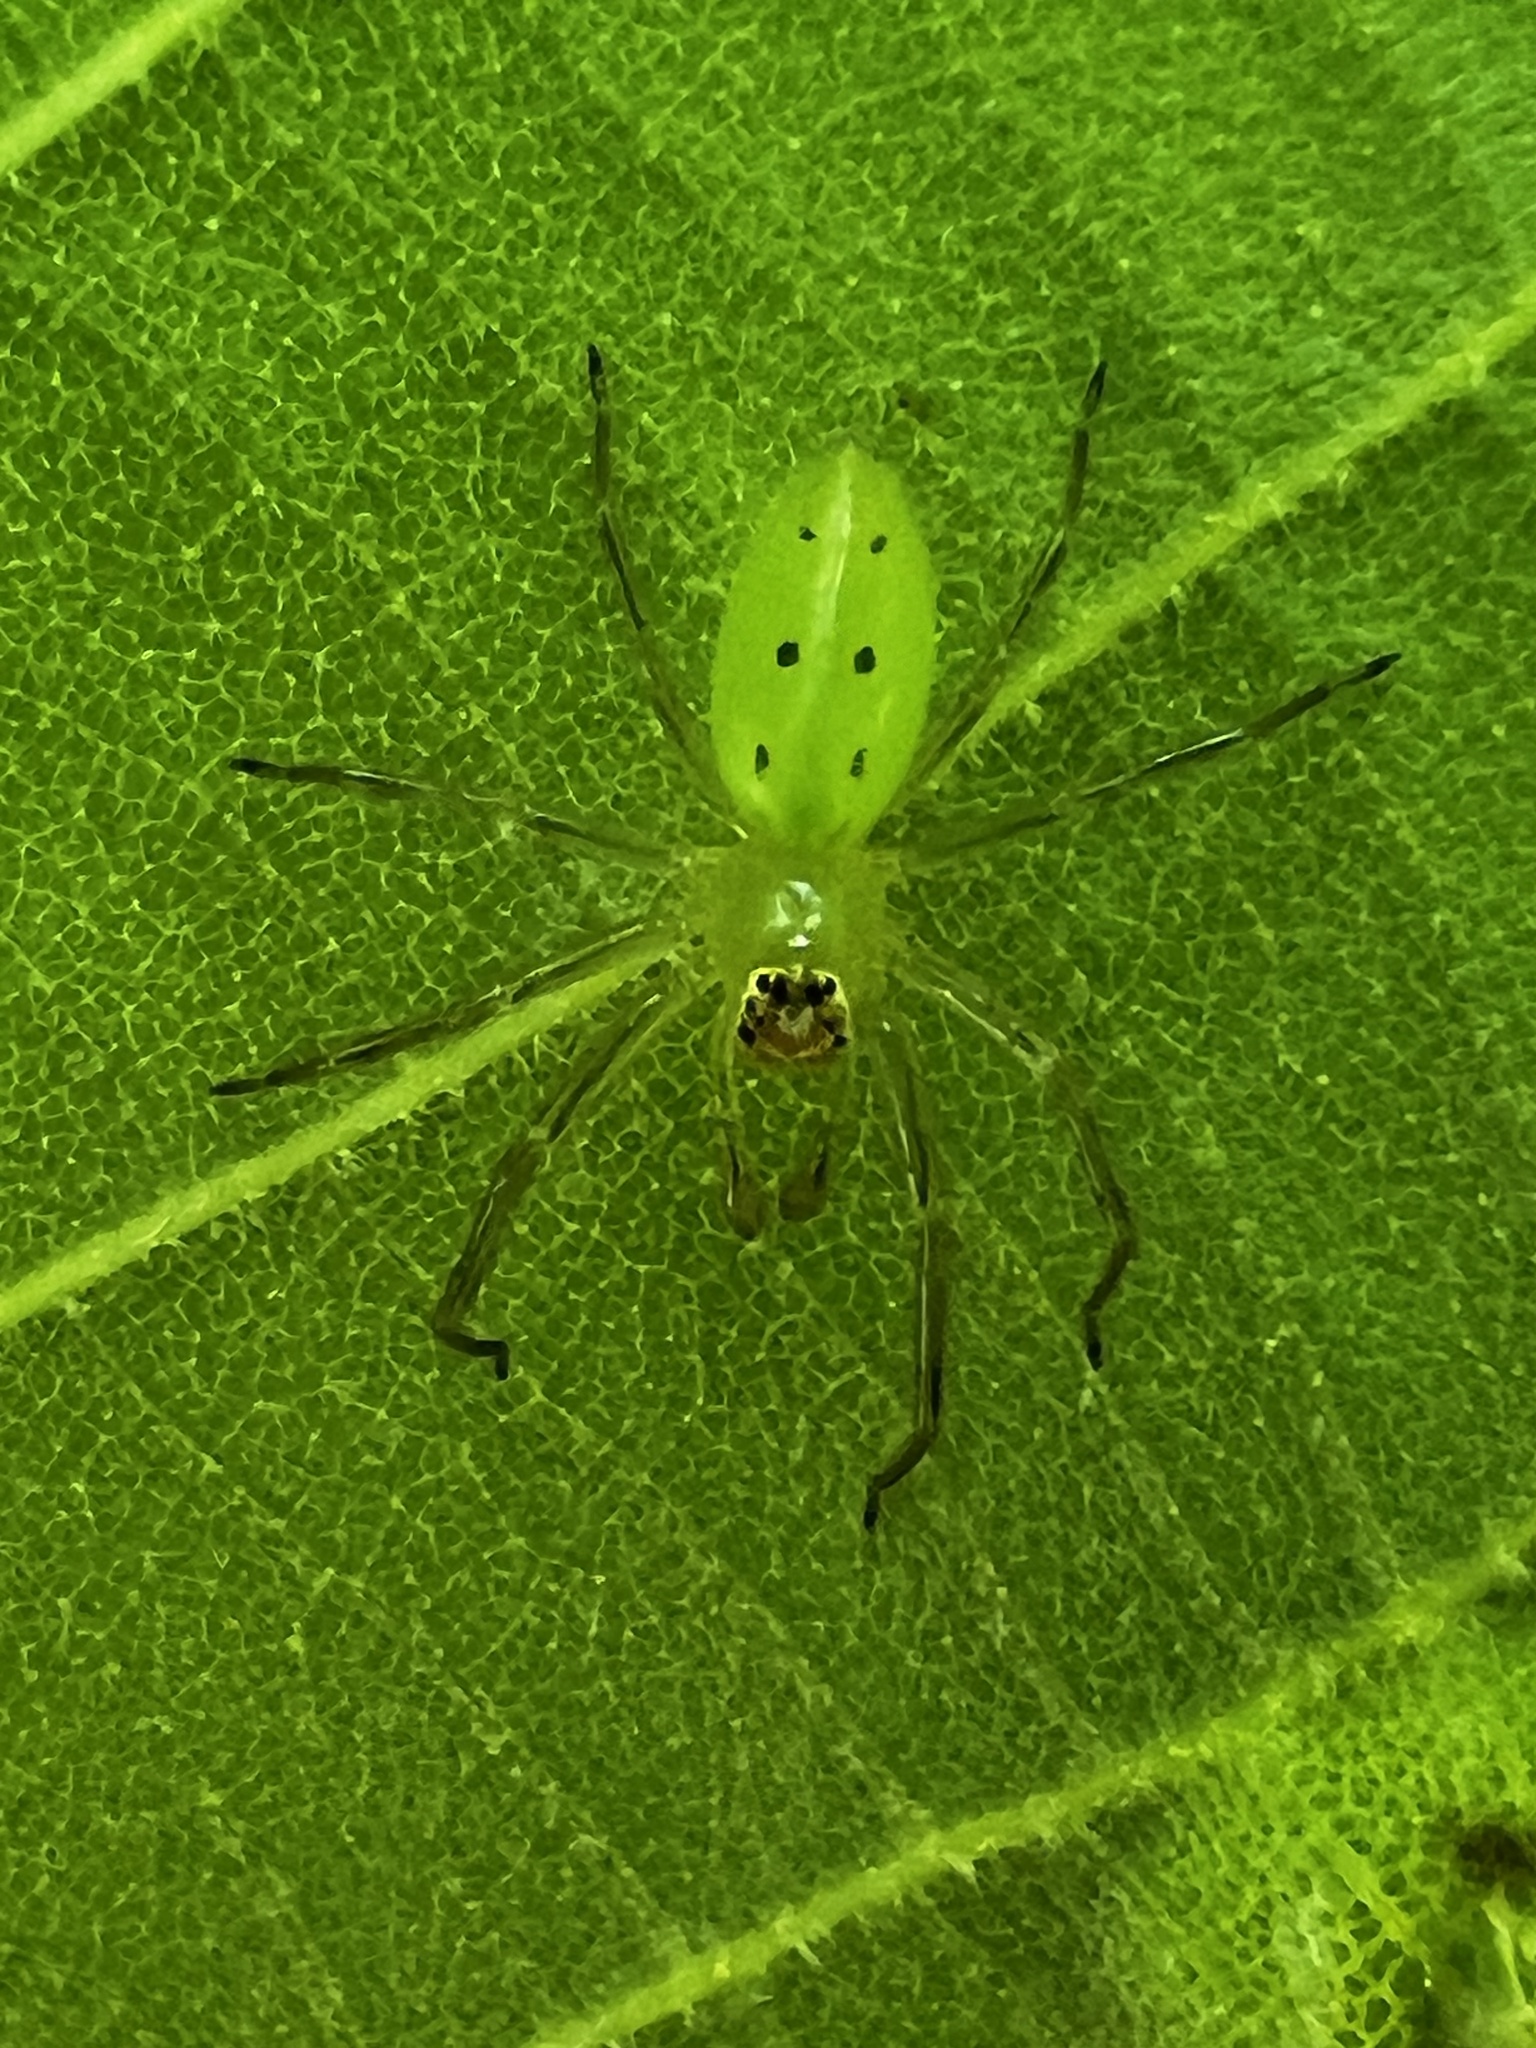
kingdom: Animalia
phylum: Arthropoda
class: Arachnida
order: Araneae
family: Salticidae
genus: Lyssomanes
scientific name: Lyssomanes viridis
